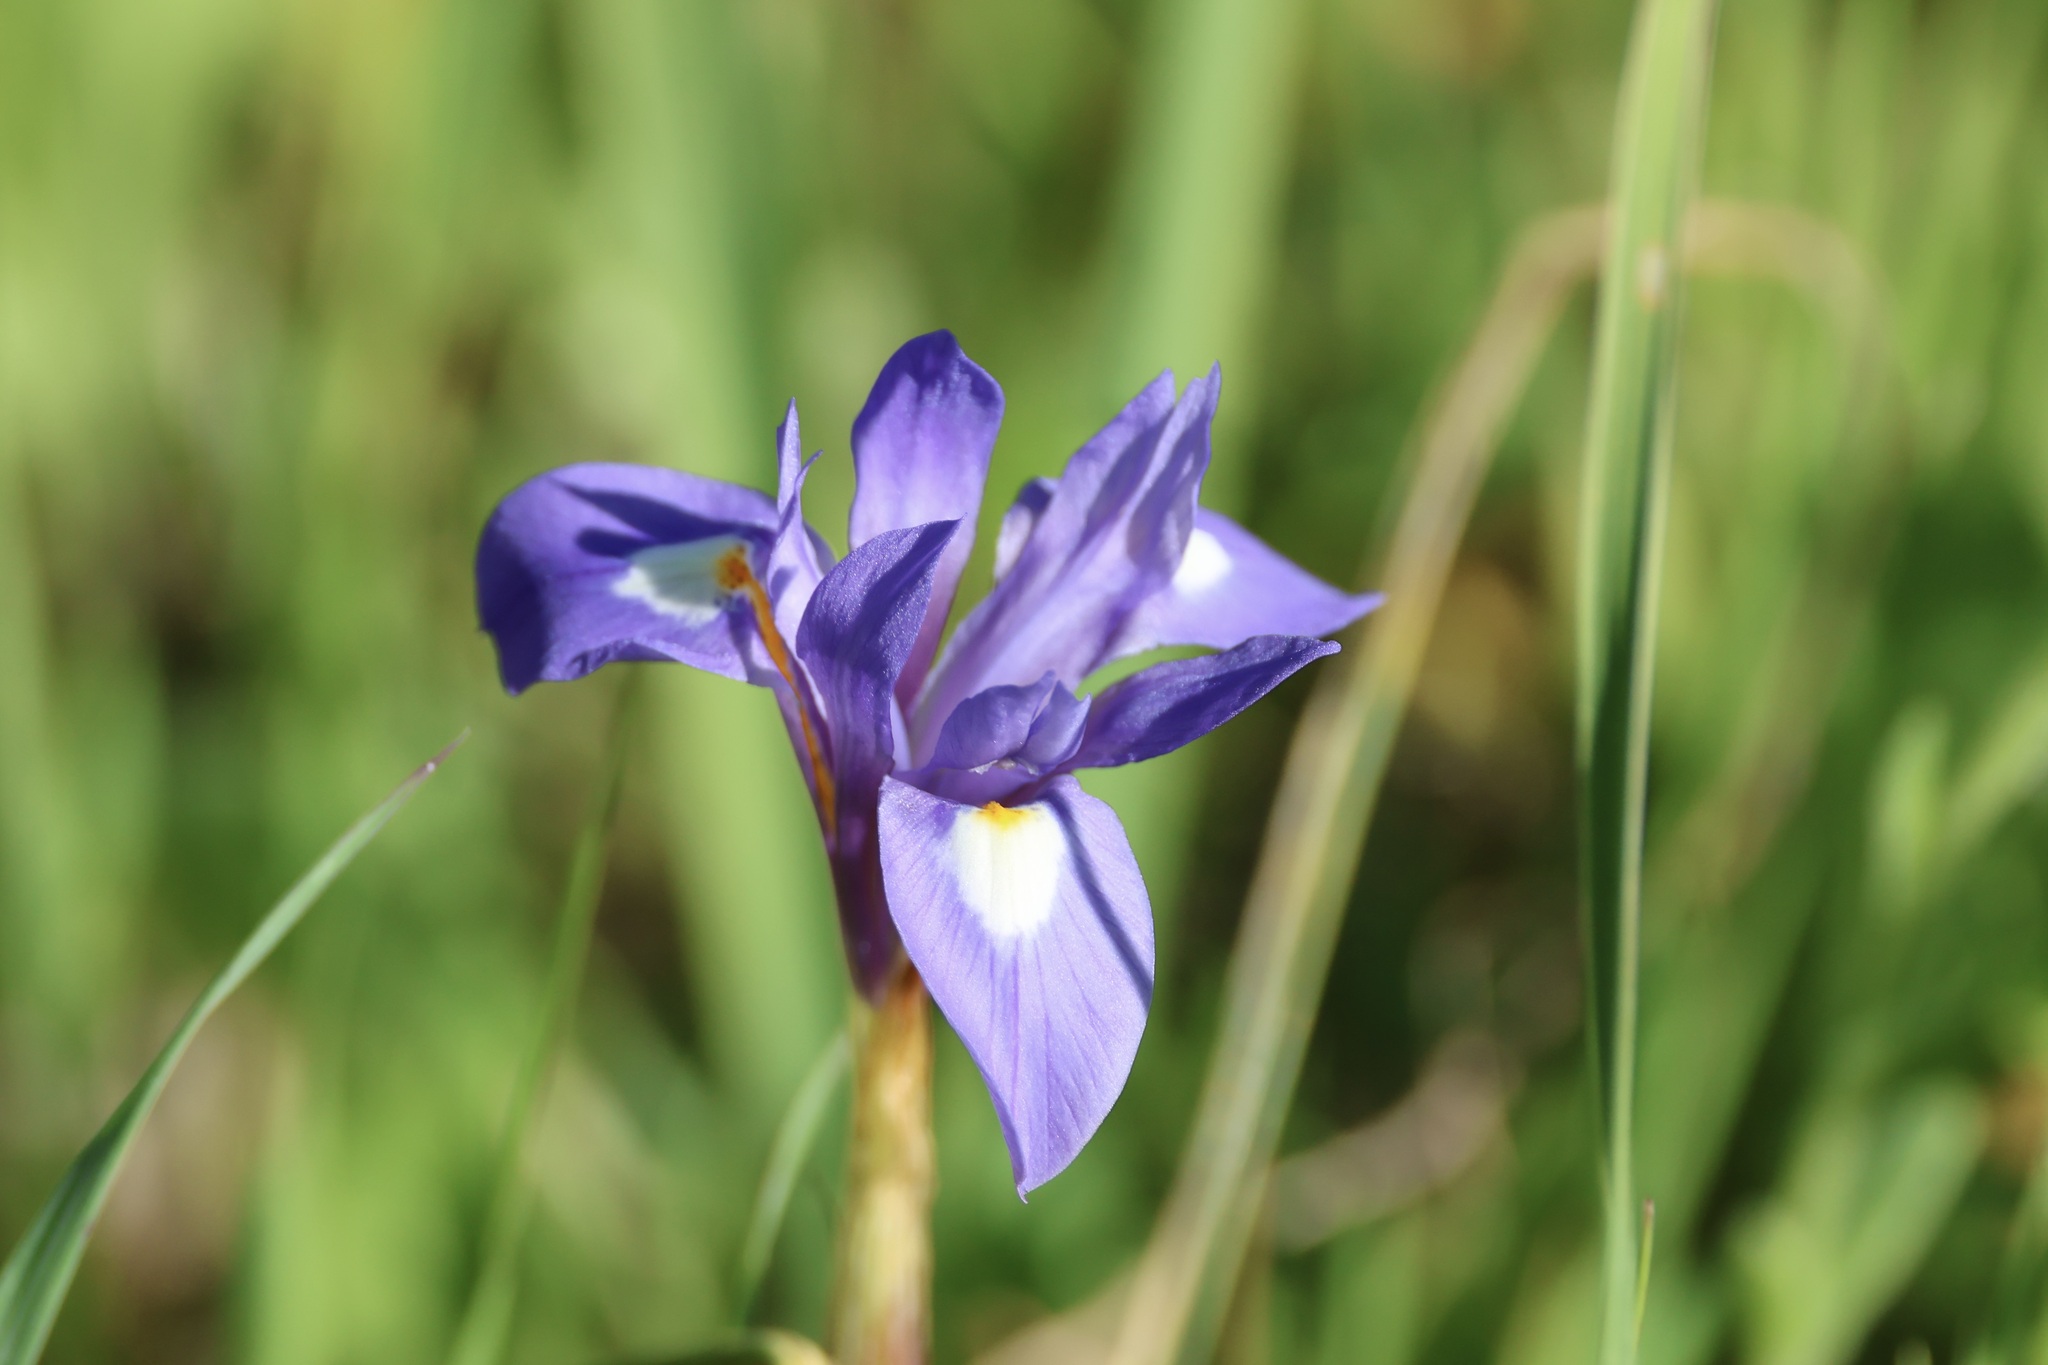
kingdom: Plantae
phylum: Tracheophyta
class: Liliopsida
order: Asparagales
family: Iridaceae
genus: Moraea
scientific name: Moraea sisyrinchium
